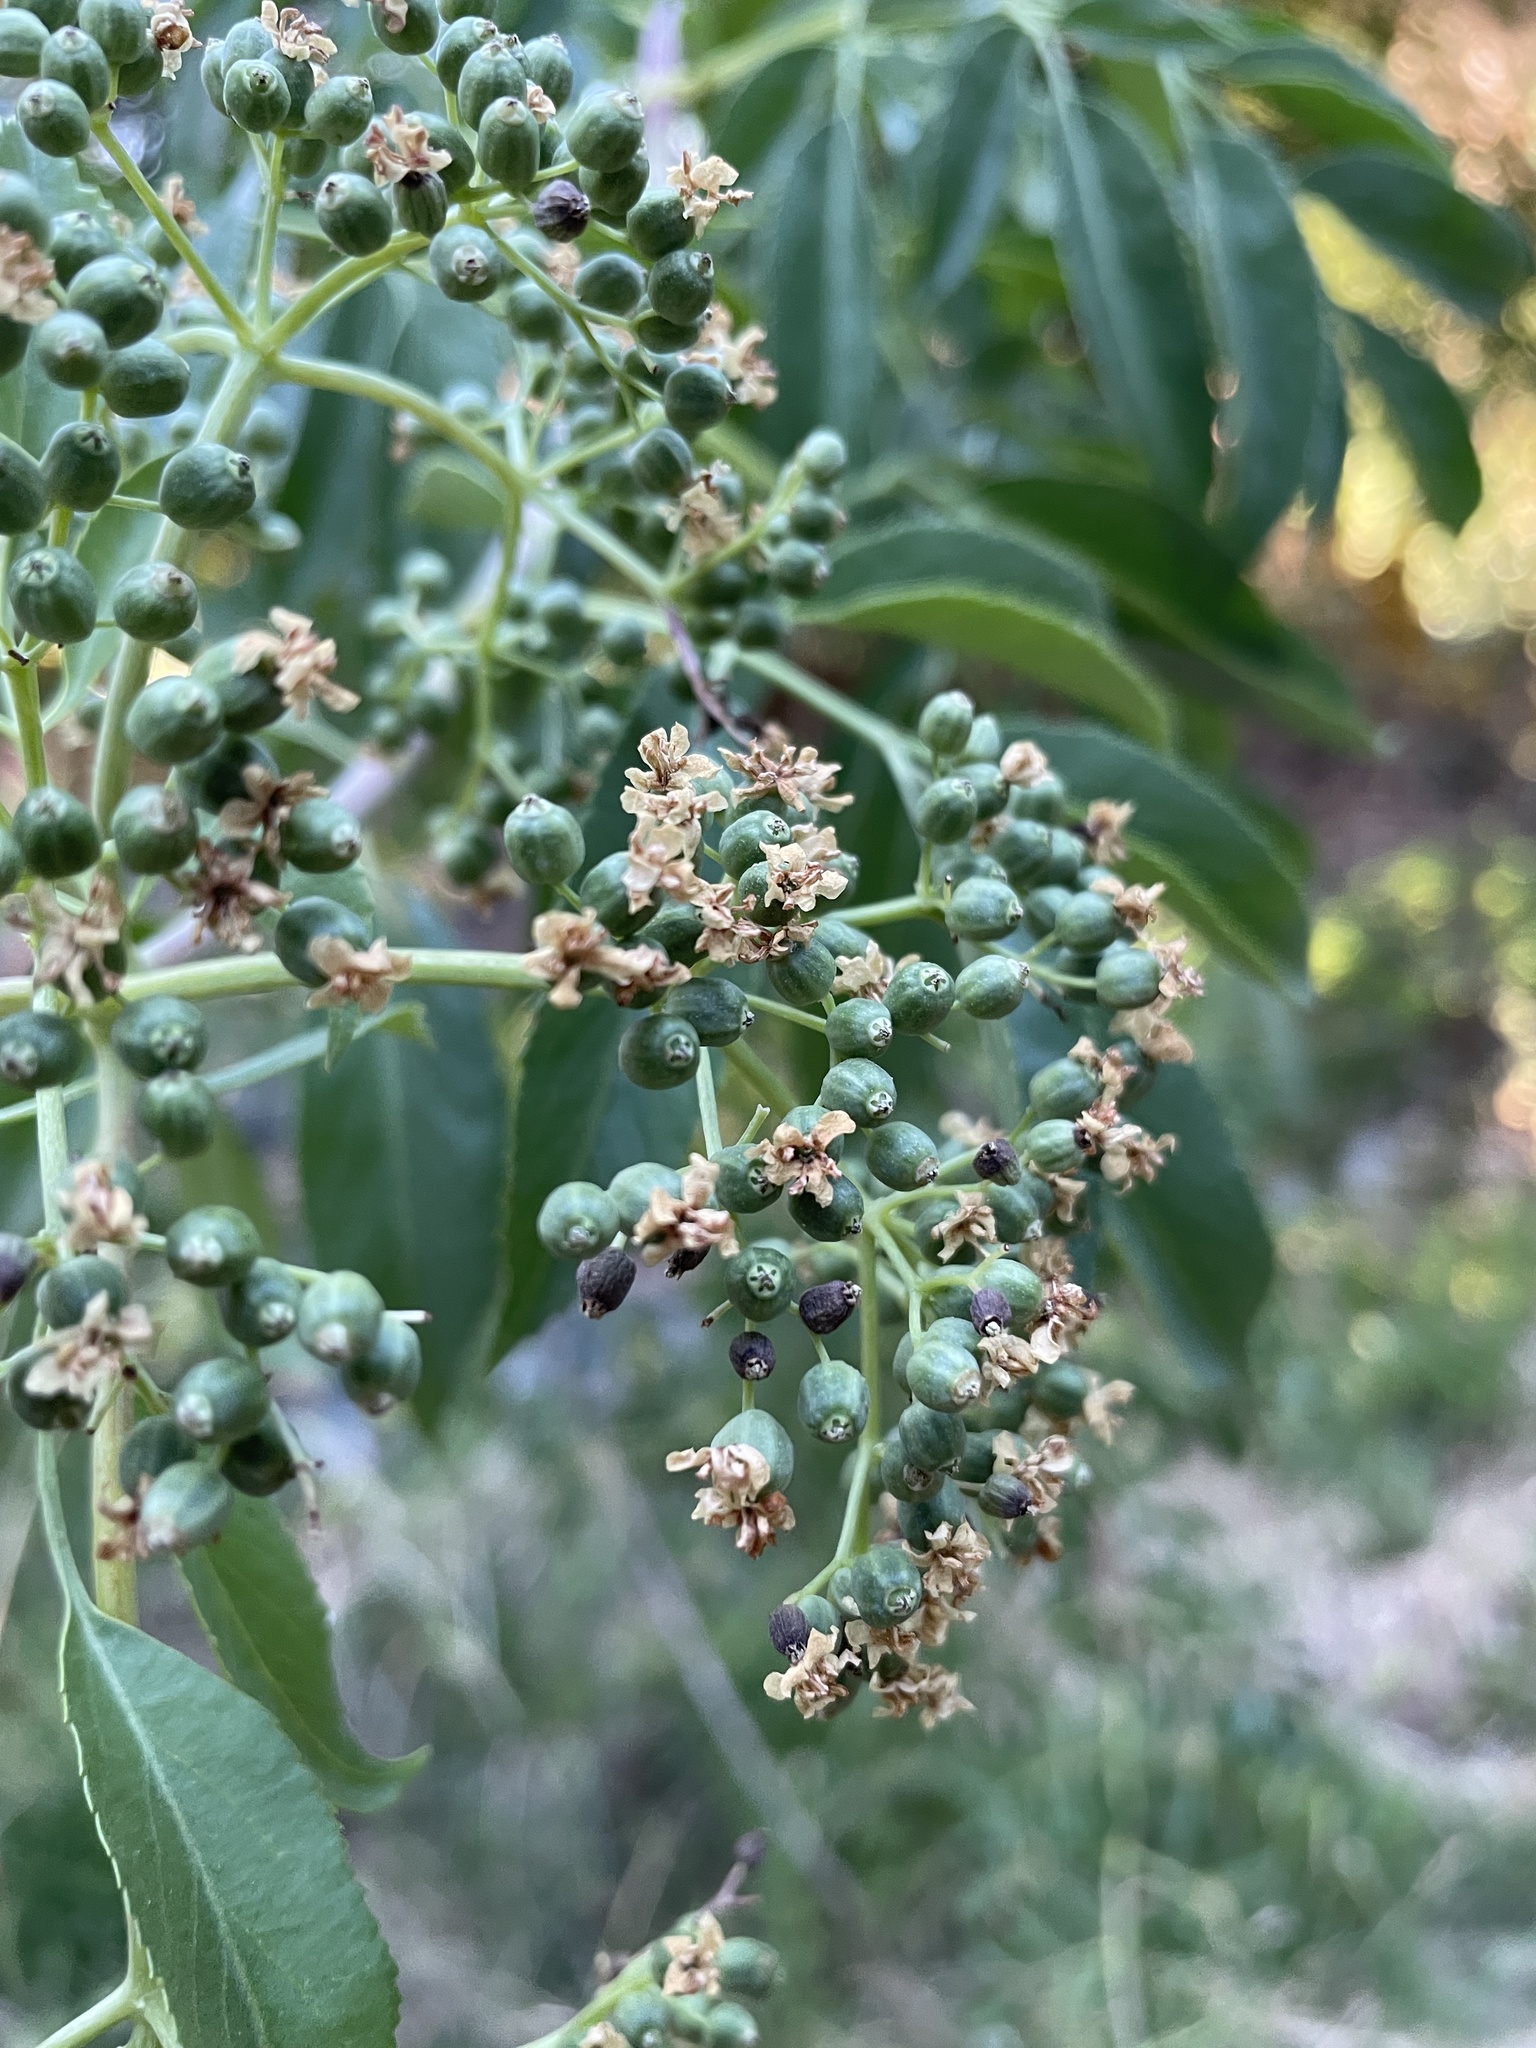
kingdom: Plantae
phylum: Tracheophyta
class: Magnoliopsida
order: Dipsacales
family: Viburnaceae
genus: Sambucus
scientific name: Sambucus cerulea
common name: Blue elder
